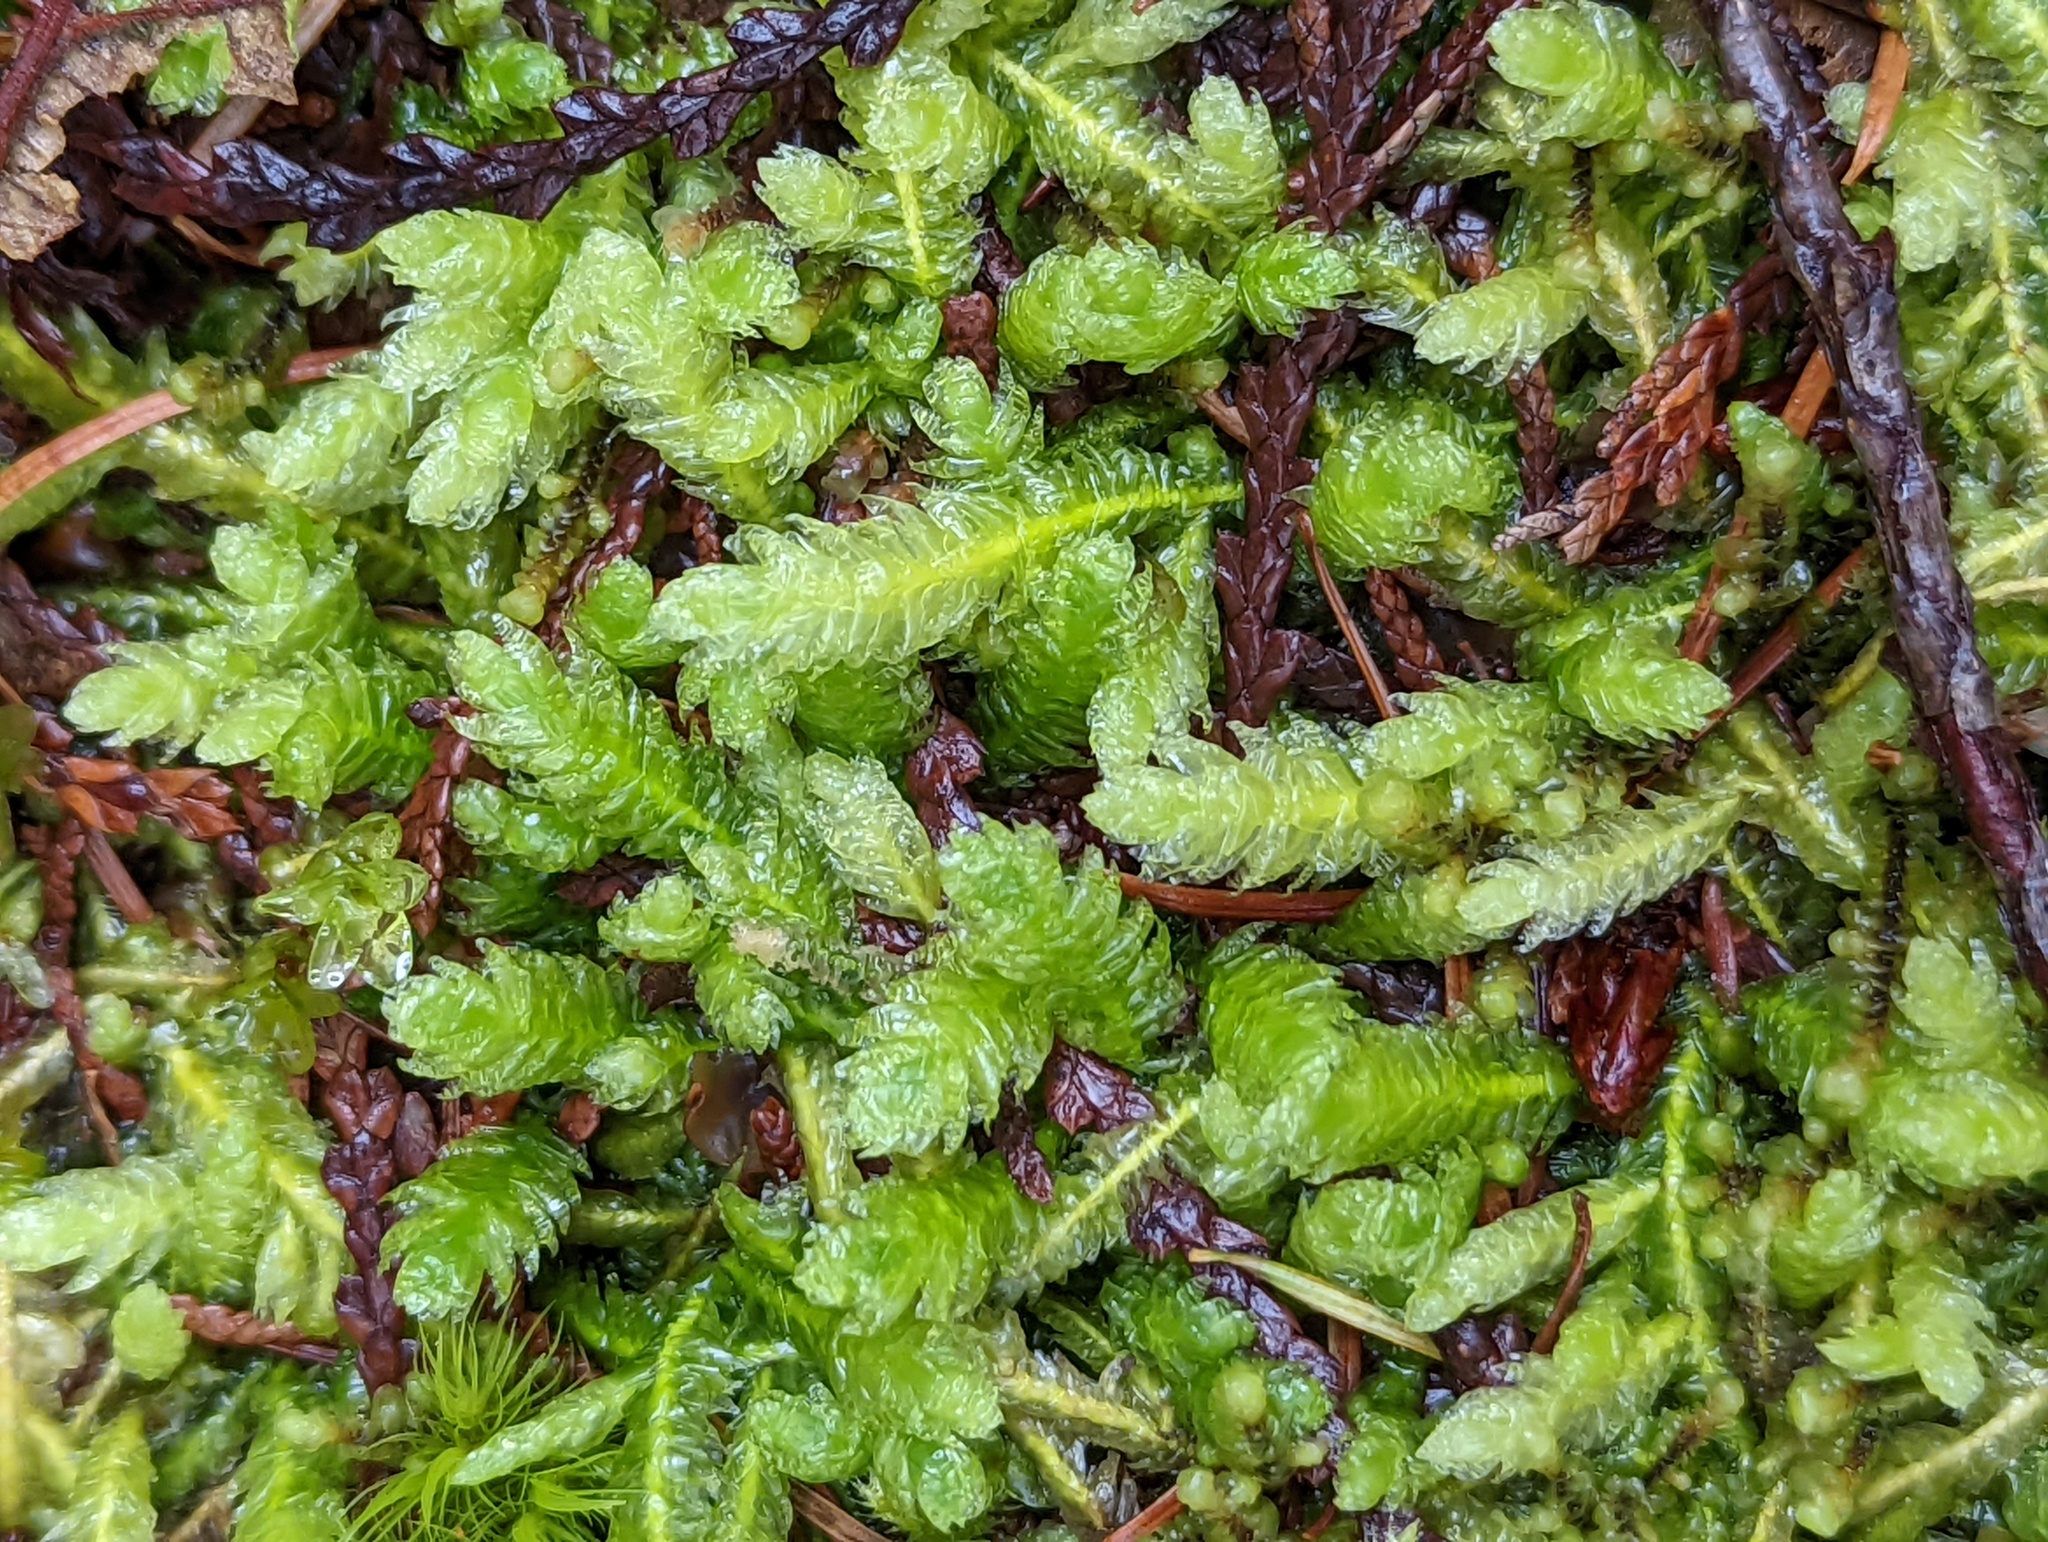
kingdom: Plantae
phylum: Bryophyta
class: Bryopsida
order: Hypnales
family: Plagiotheciaceae
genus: Plagiothecium
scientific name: Plagiothecium undulatum
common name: Waved silk-moss
